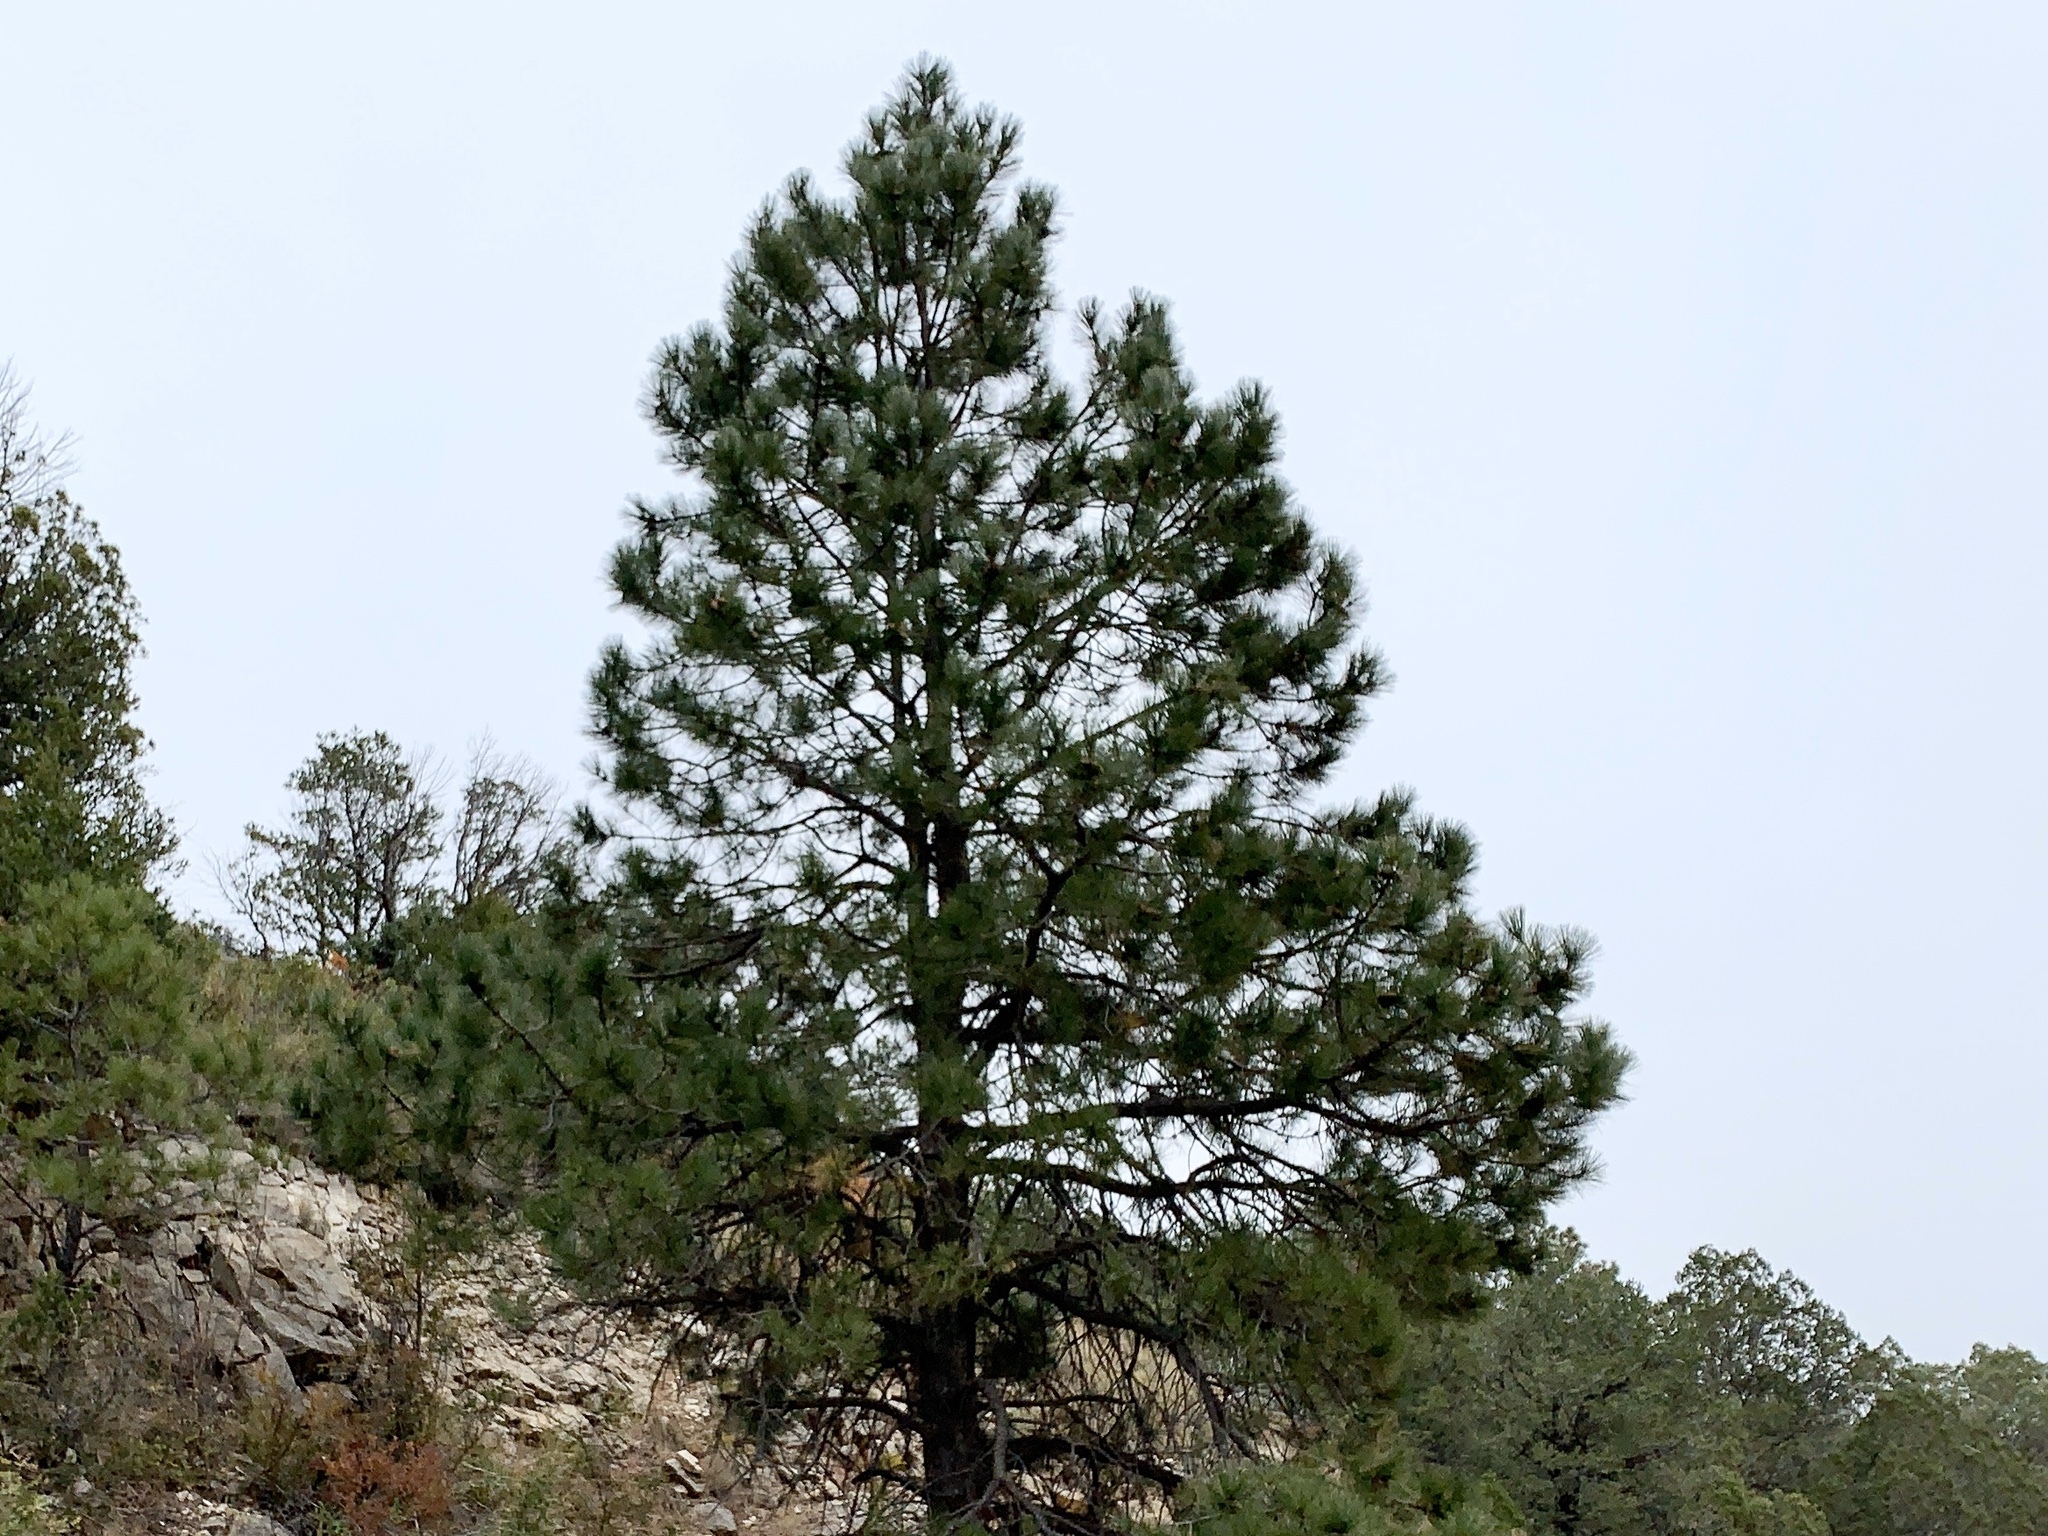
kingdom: Plantae
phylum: Tracheophyta
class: Pinopsida
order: Pinales
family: Pinaceae
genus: Pinus
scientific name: Pinus ponderosa
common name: Western yellow-pine
